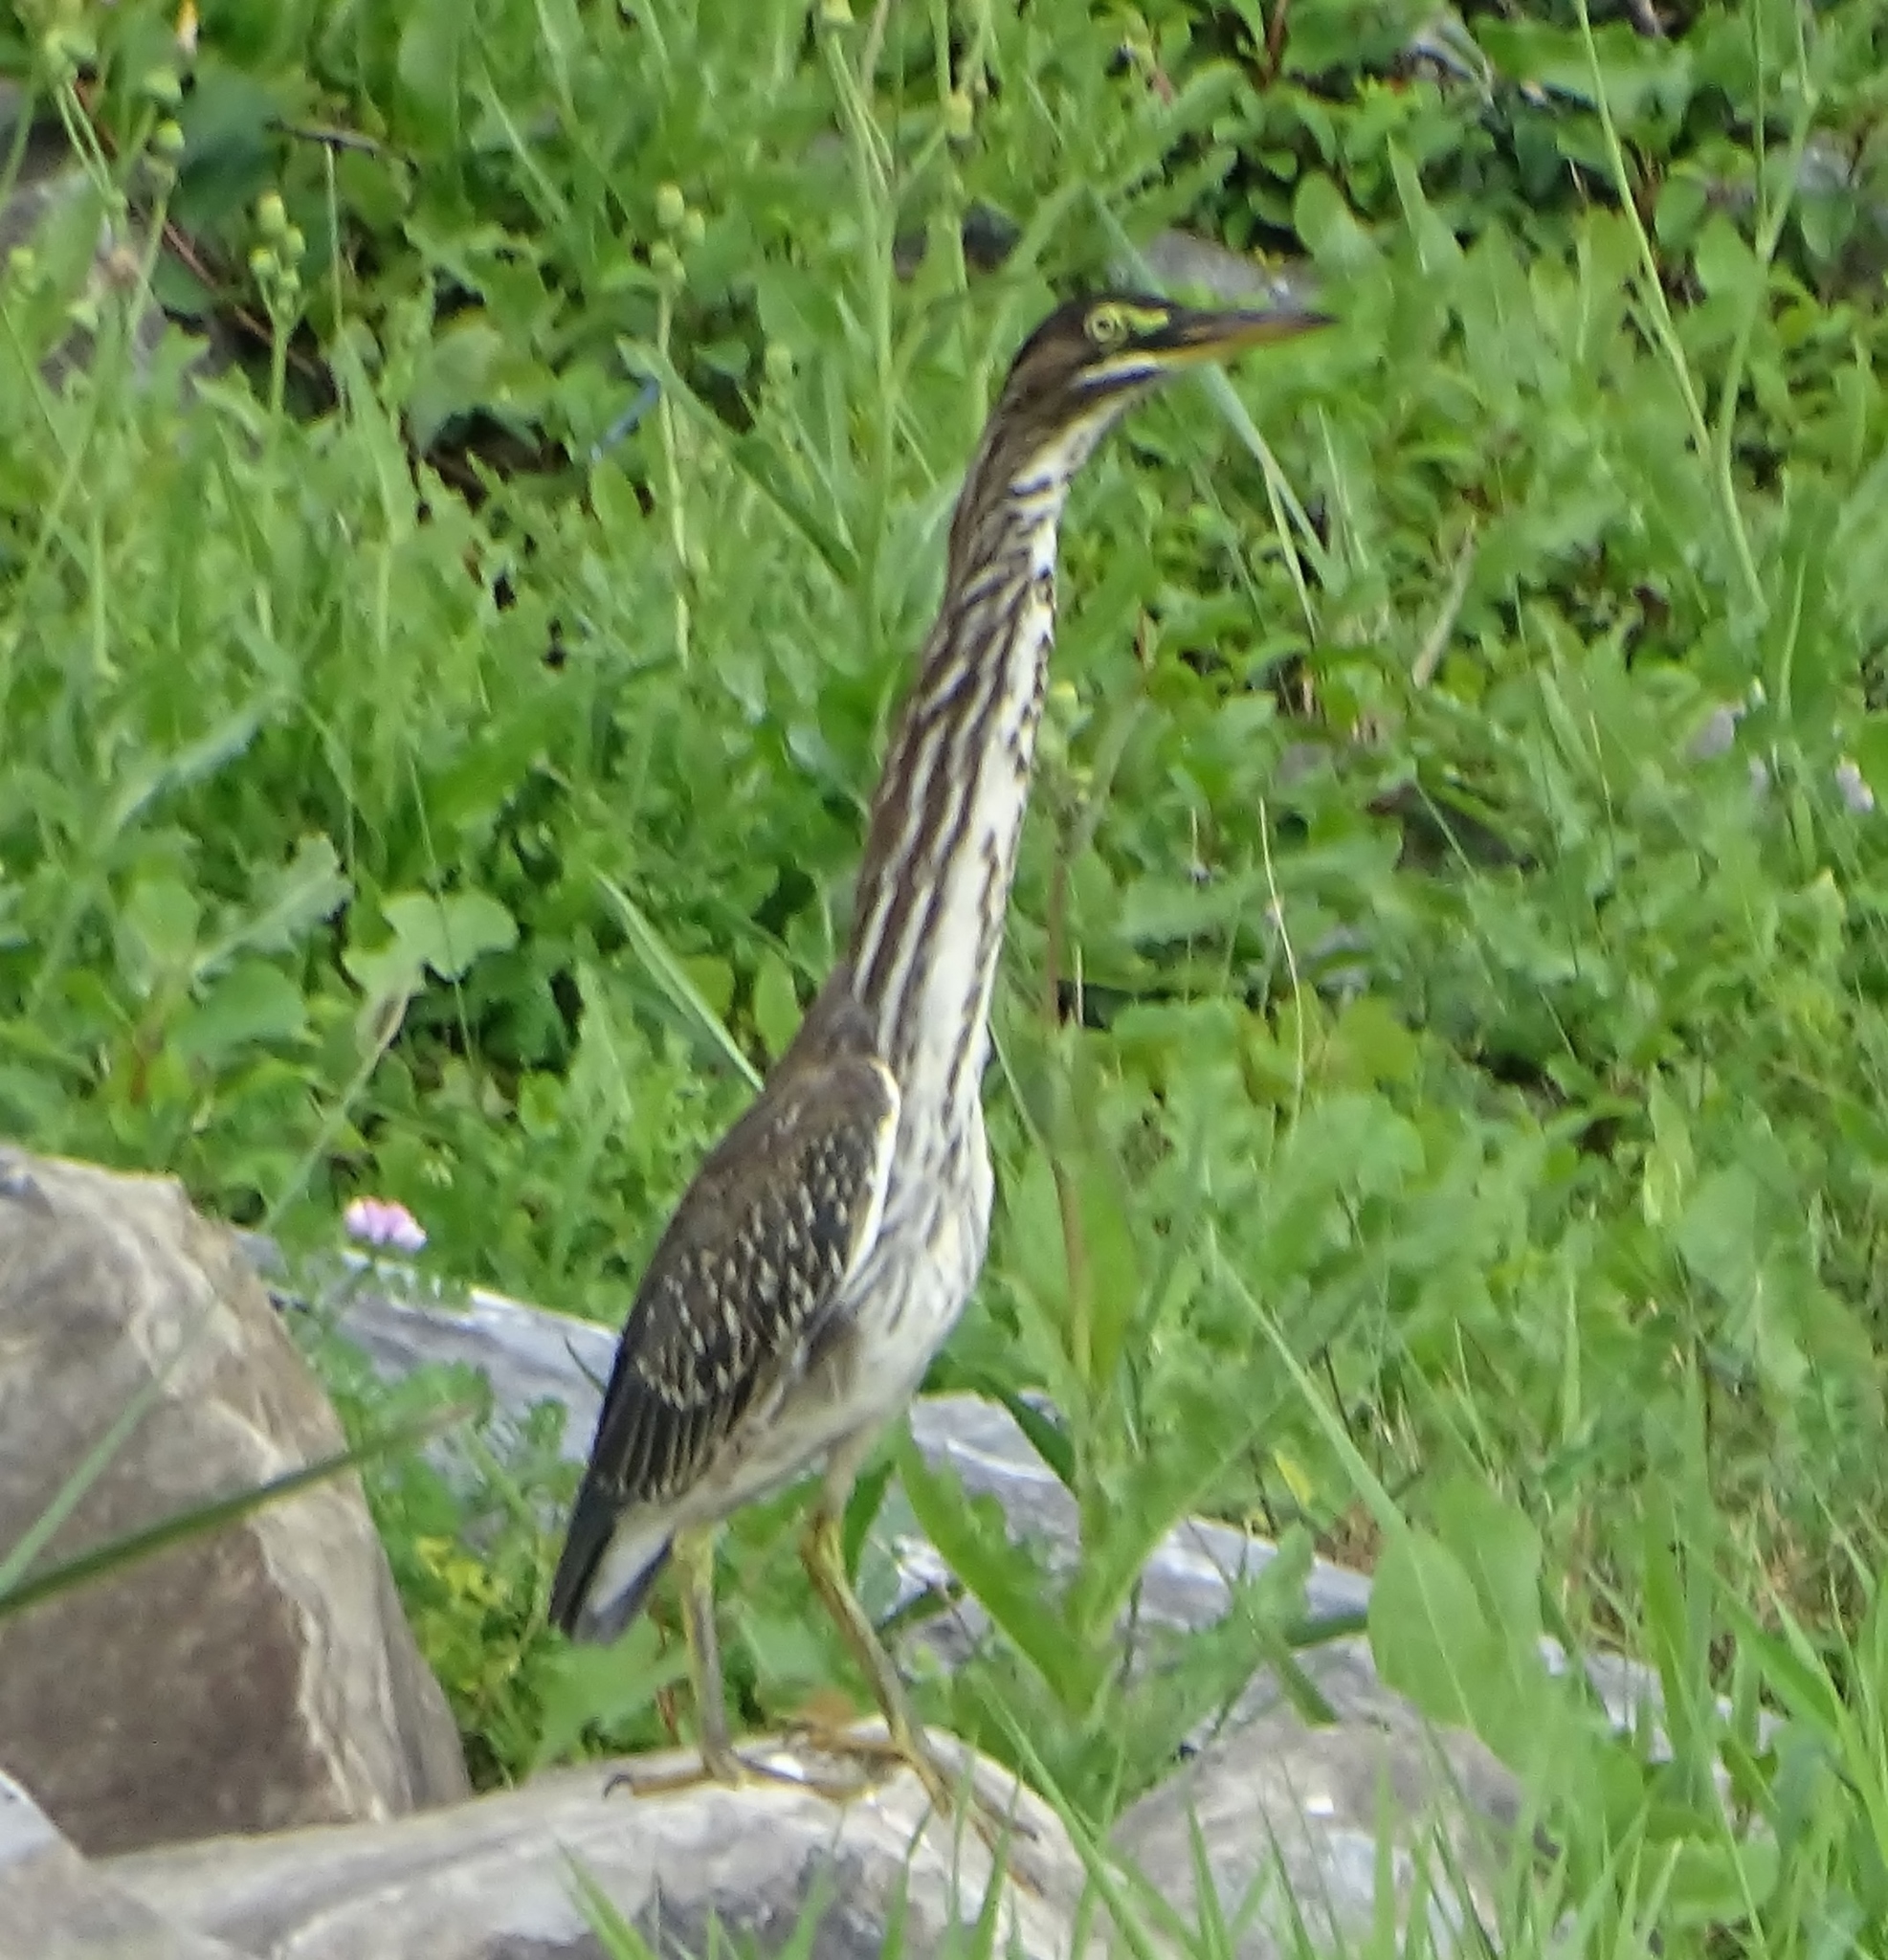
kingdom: Animalia
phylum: Chordata
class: Aves
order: Pelecaniformes
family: Ardeidae
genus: Butorides
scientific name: Butorides virescens
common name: Green heron
